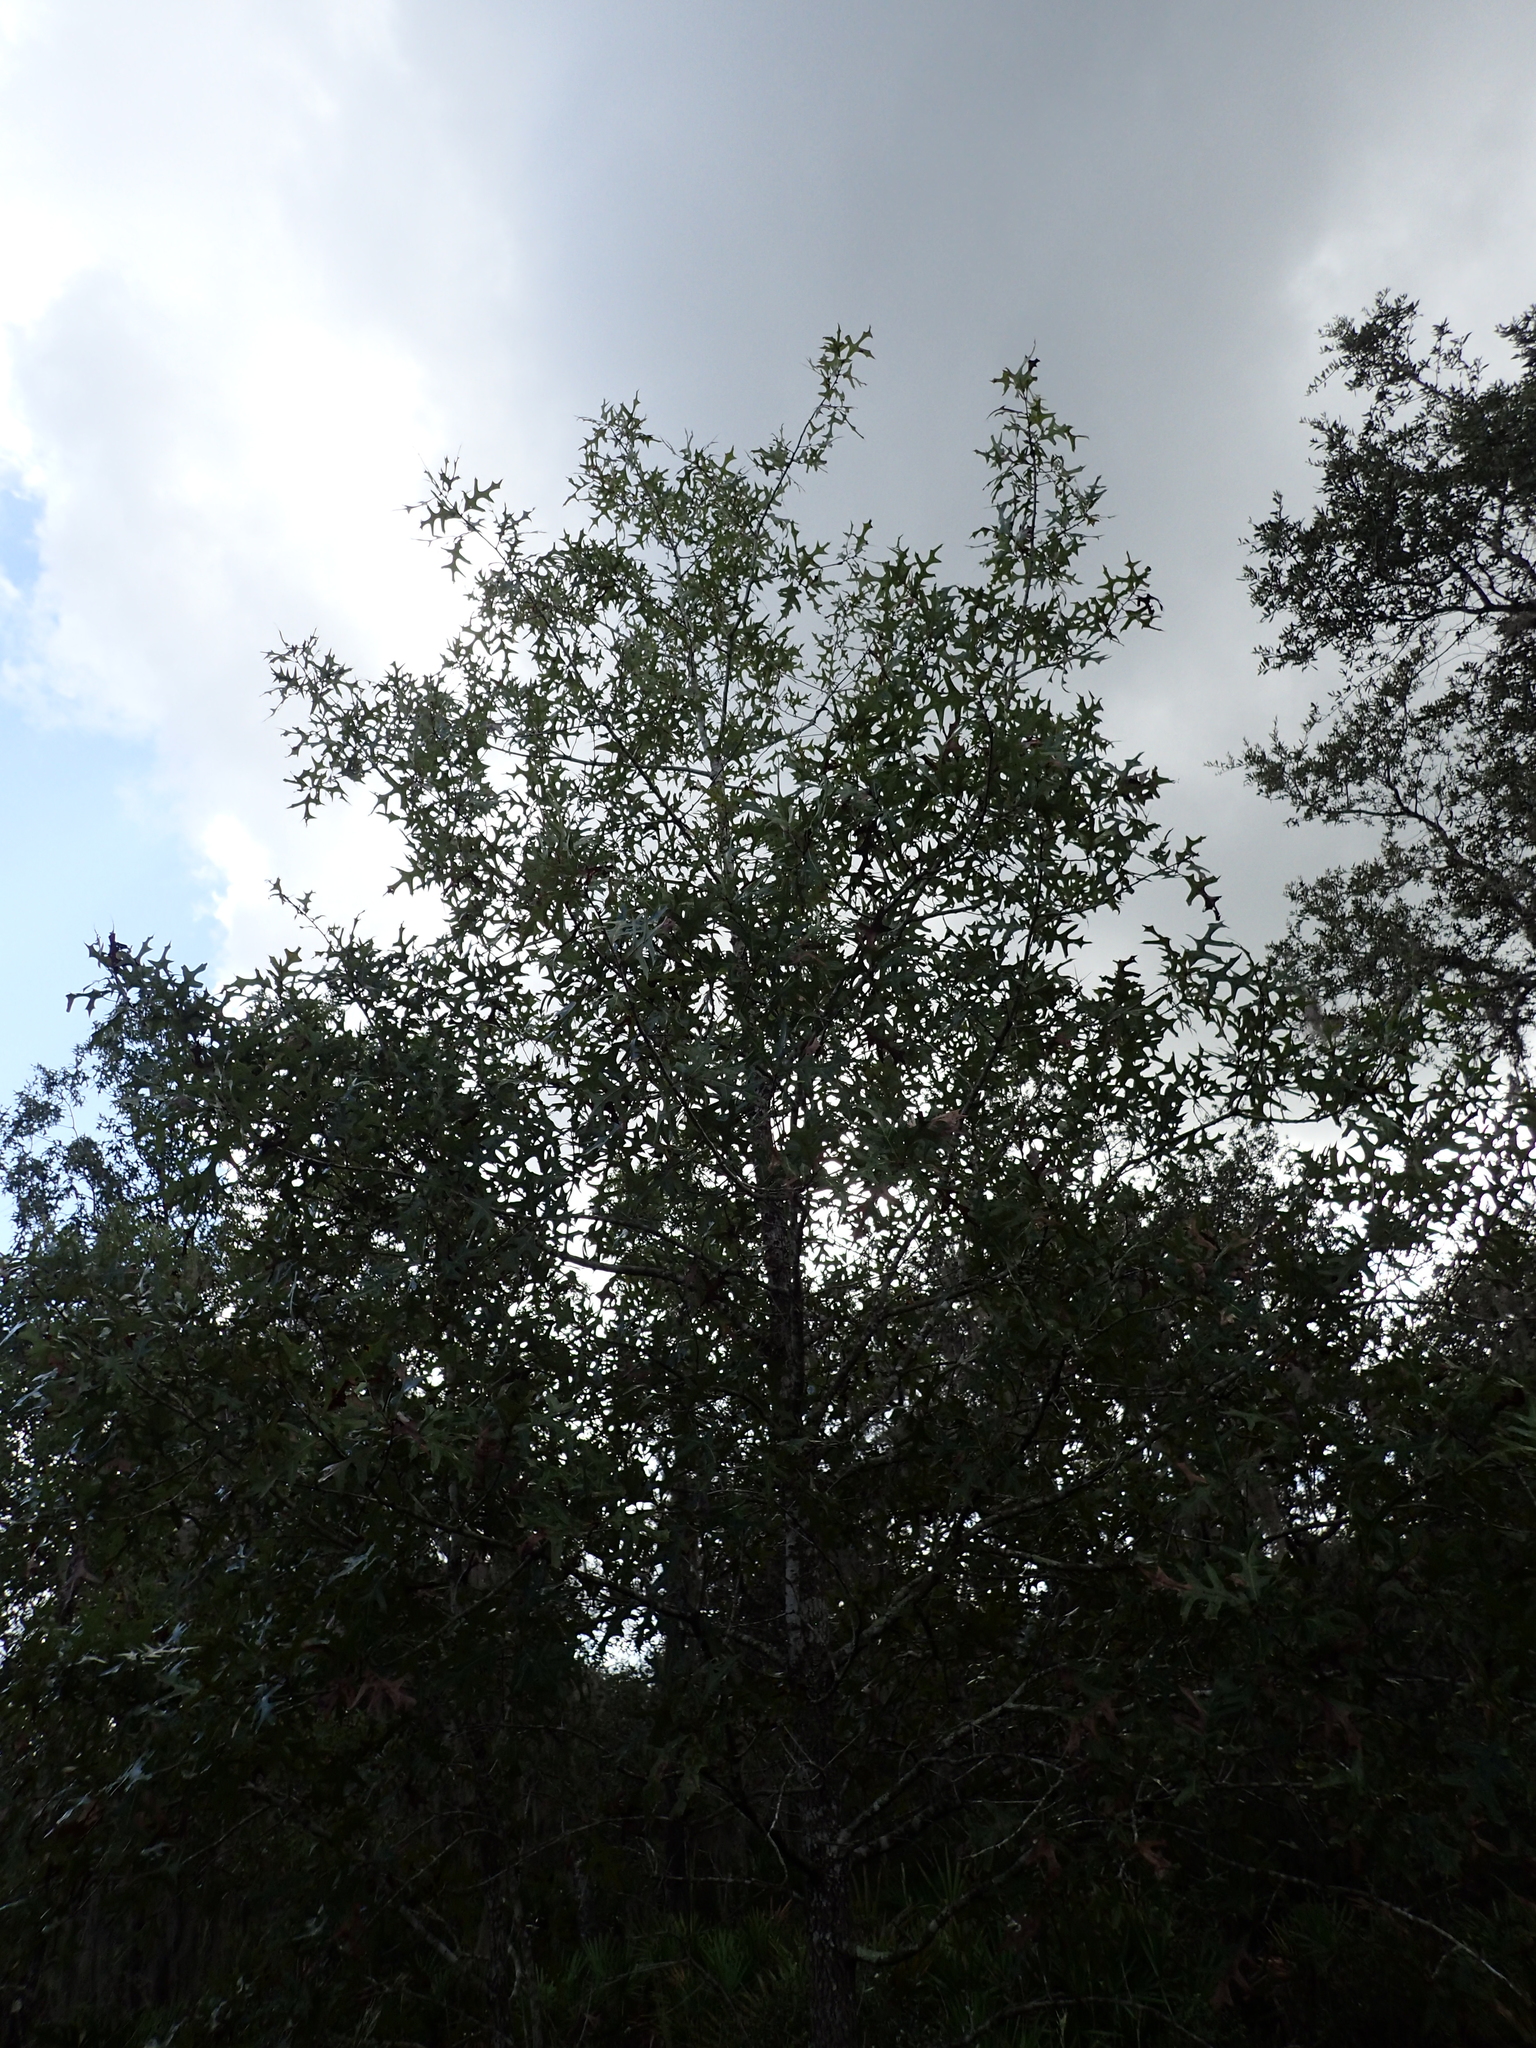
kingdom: Plantae
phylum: Tracheophyta
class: Magnoliopsida
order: Fagales
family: Fagaceae
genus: Quercus
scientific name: Quercus laevis
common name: Turkey oak
